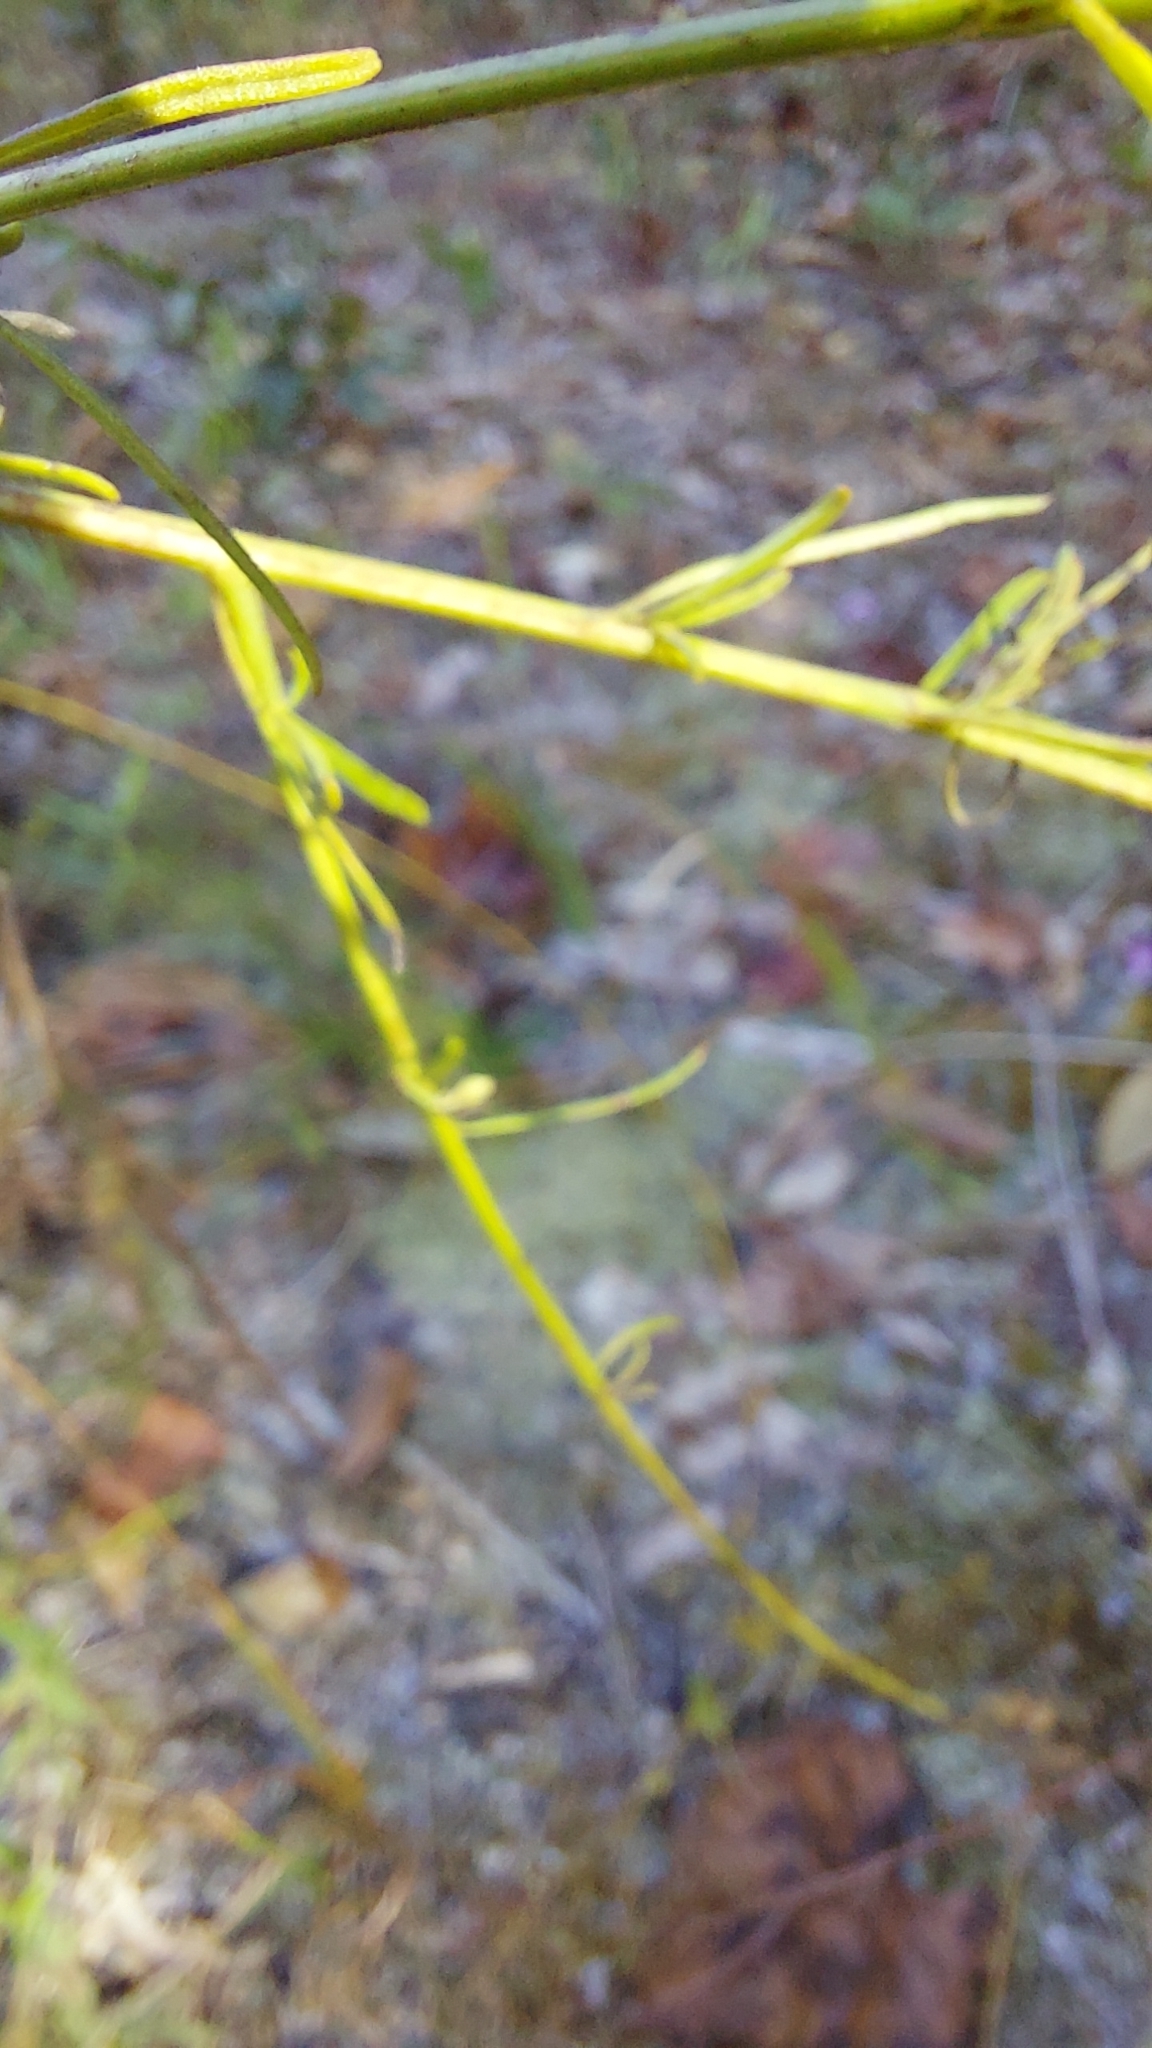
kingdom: Plantae
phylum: Tracheophyta
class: Magnoliopsida
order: Lamiales
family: Orobanchaceae
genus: Agalinis
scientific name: Agalinis plukenetii
